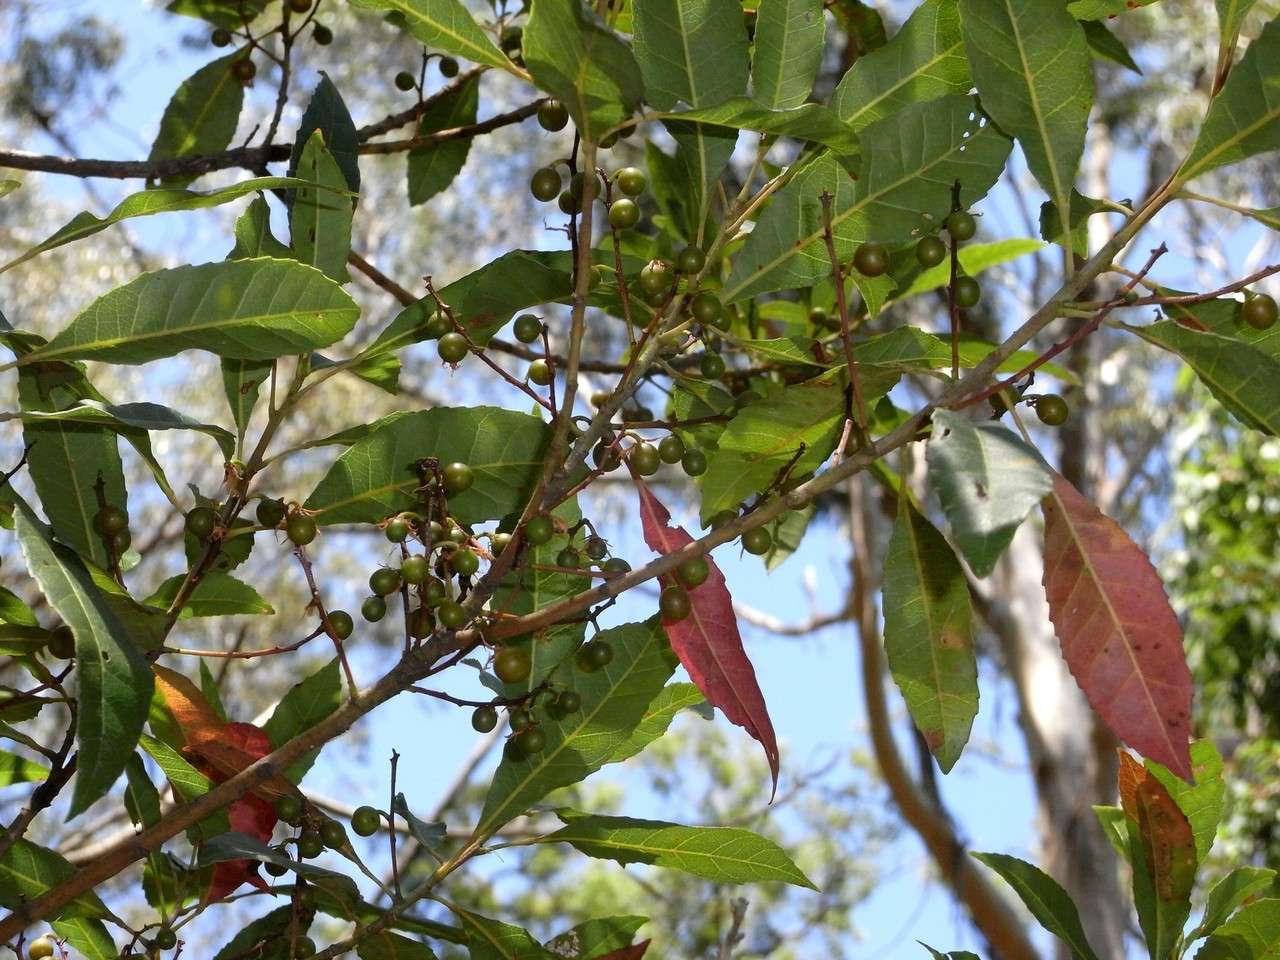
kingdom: Plantae
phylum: Tracheophyta
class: Magnoliopsida
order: Oxalidales
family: Elaeocarpaceae
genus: Elaeocarpus
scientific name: Elaeocarpus reticulatus
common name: Ash quandong
